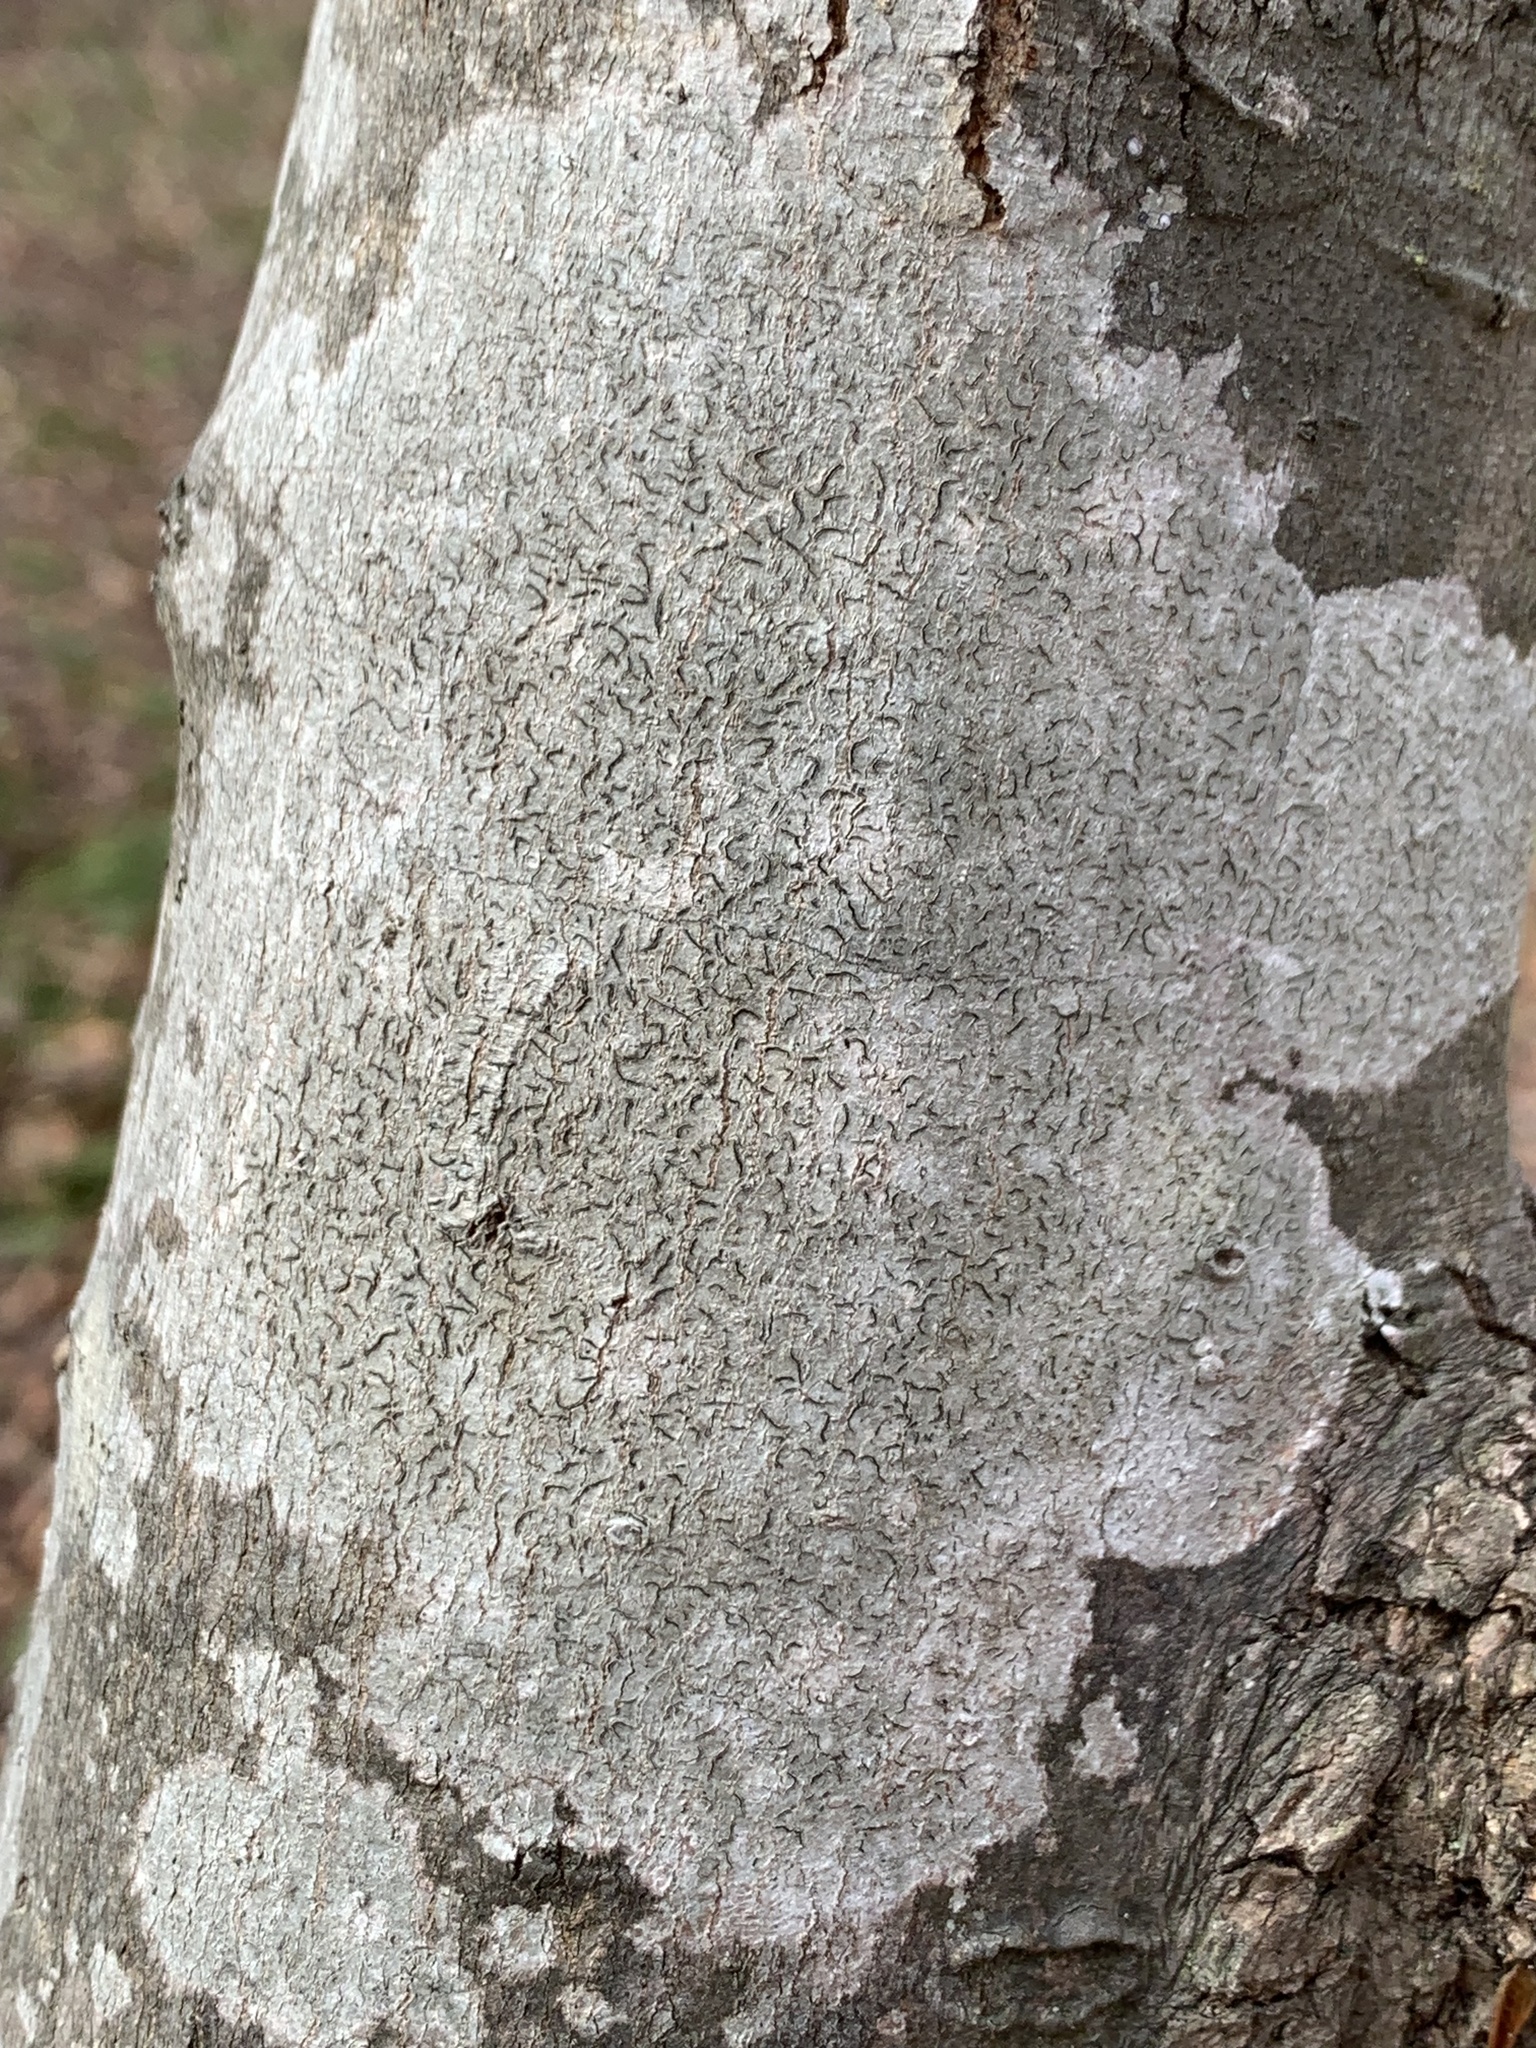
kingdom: Fungi
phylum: Ascomycota
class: Lecanoromycetes
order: Ostropales
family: Graphidaceae
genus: Graphis
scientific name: Graphis scripta
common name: Script lichen
